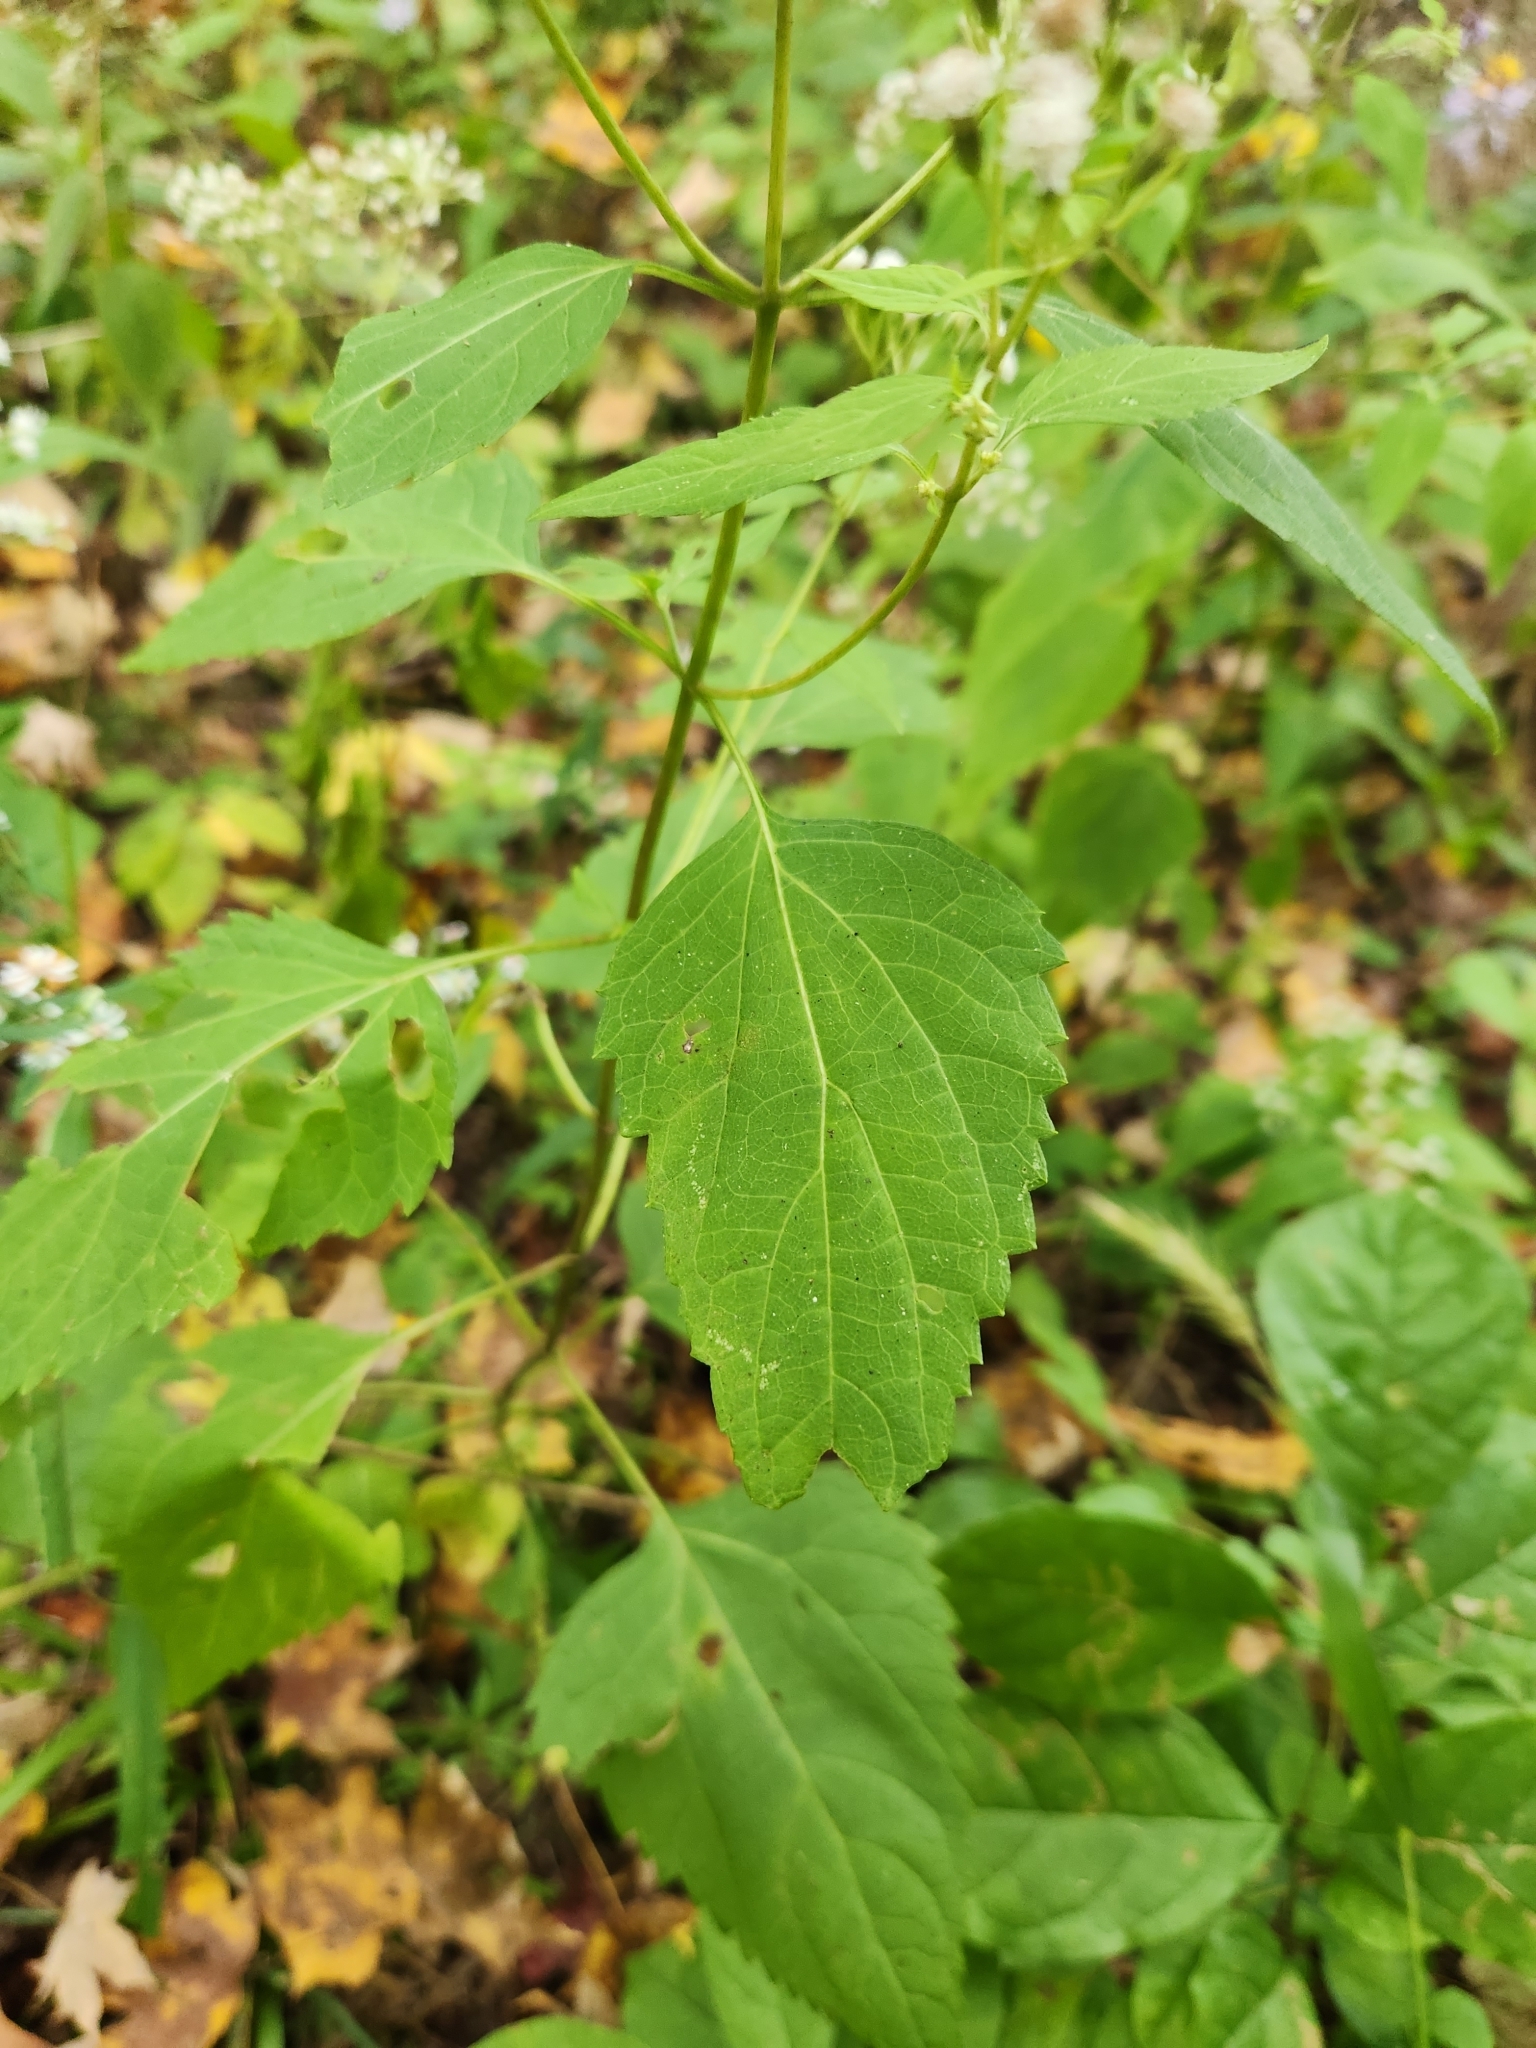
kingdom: Plantae
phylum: Tracheophyta
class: Magnoliopsida
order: Asterales
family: Asteraceae
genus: Ageratina
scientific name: Ageratina altissima
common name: White snakeroot
